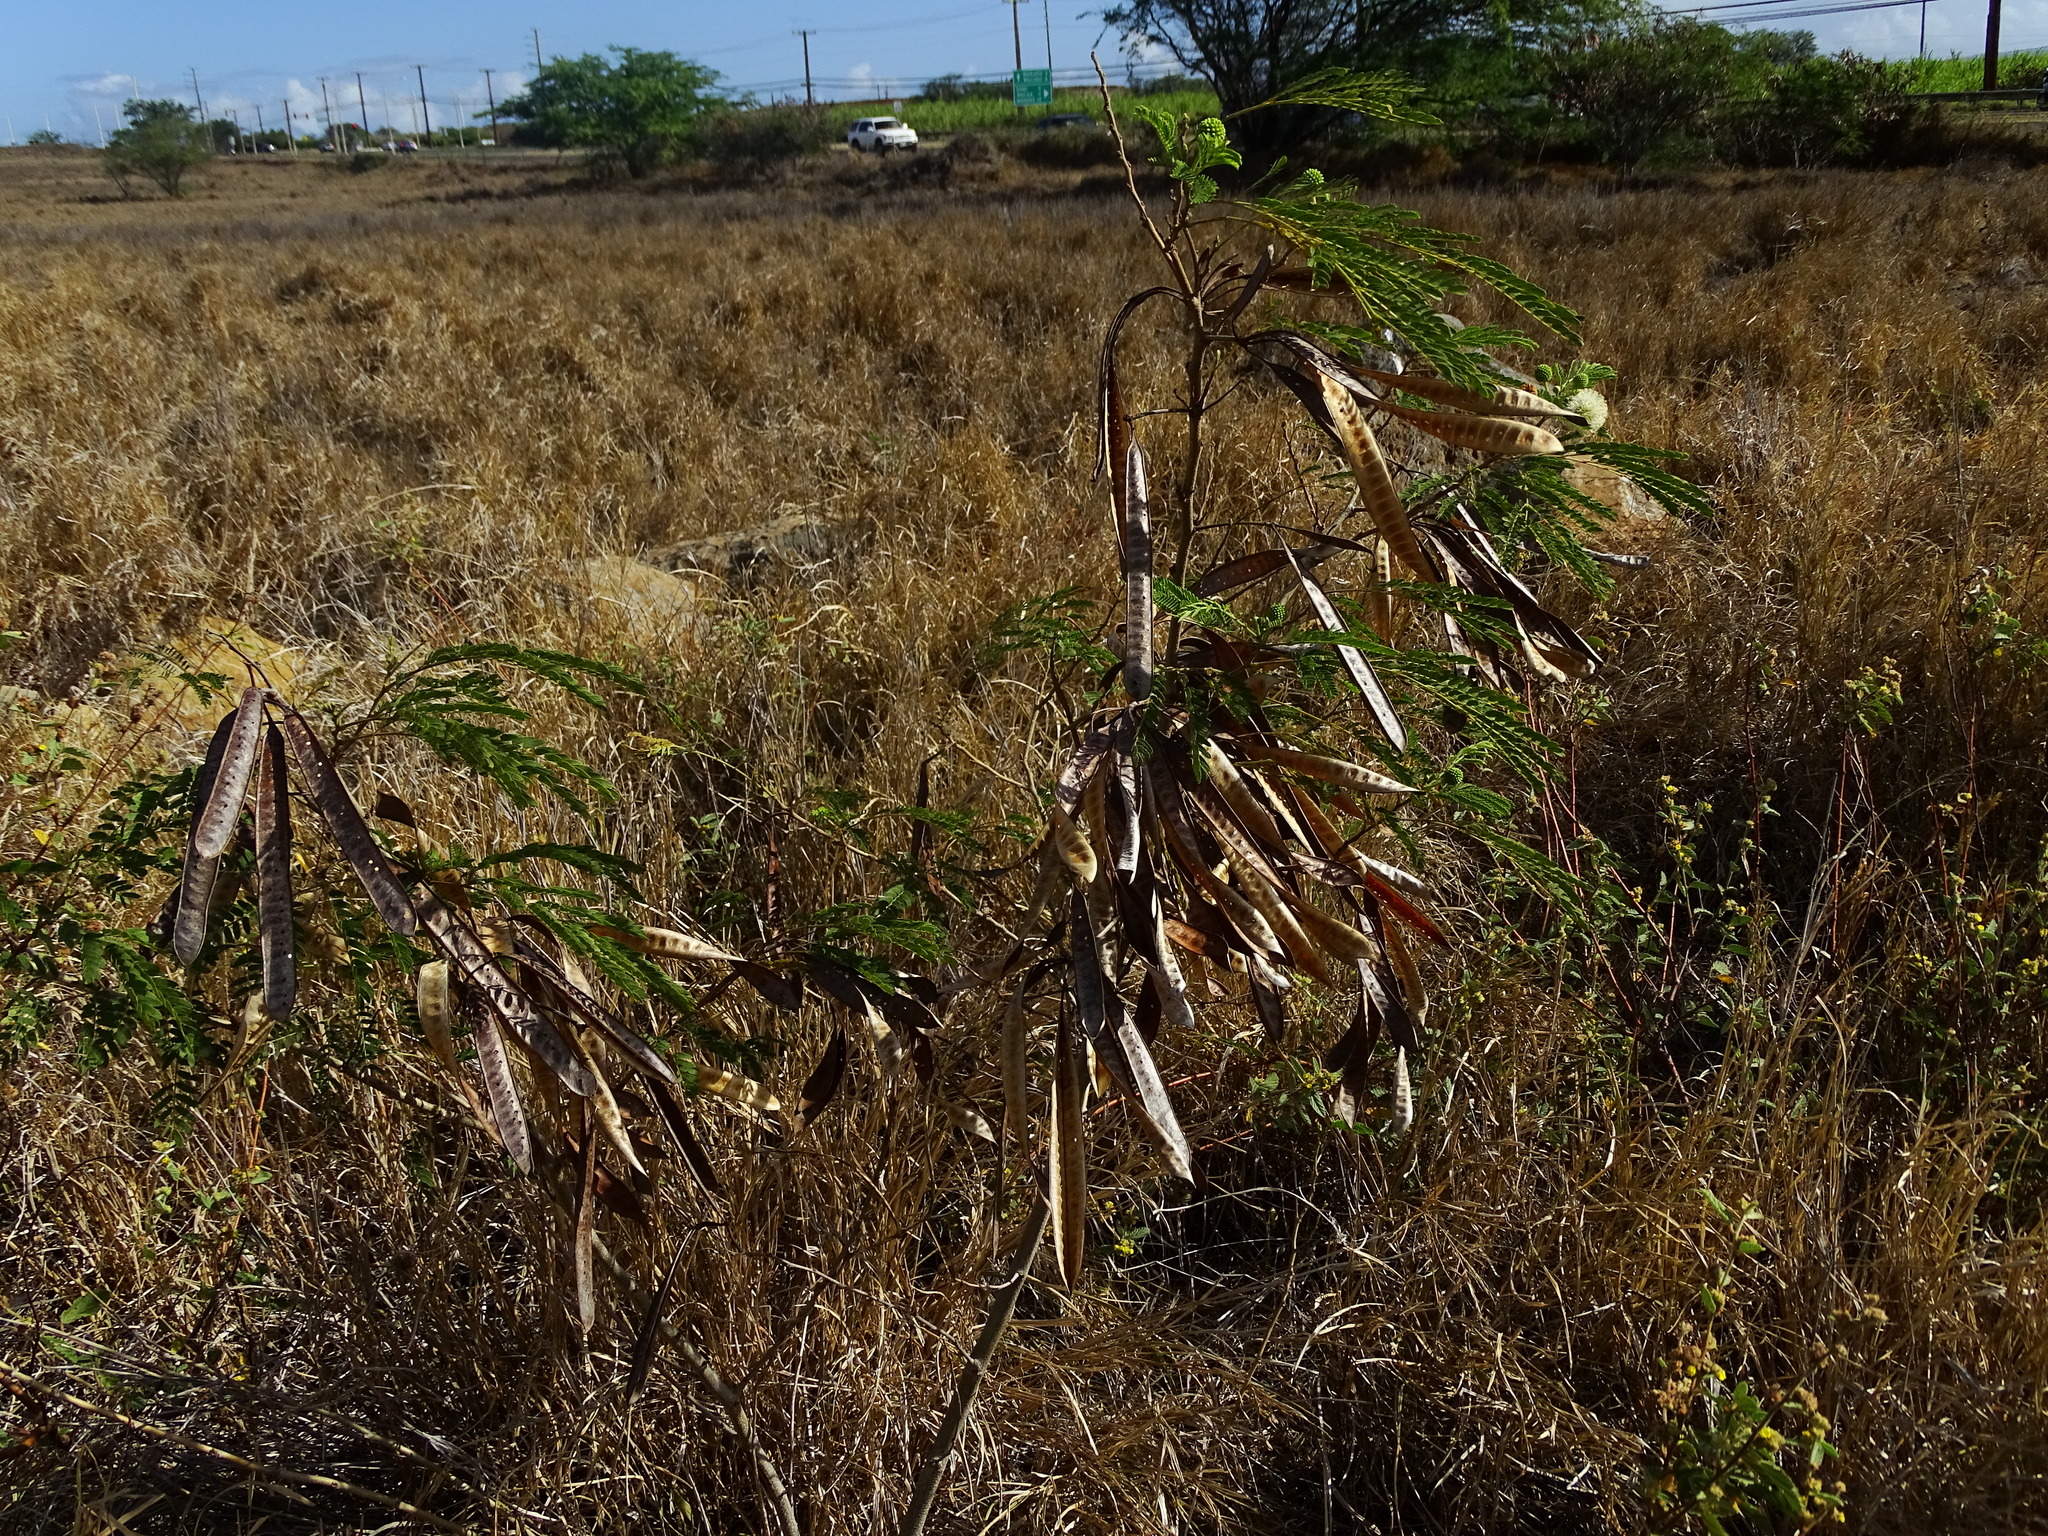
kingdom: Plantae
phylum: Tracheophyta
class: Magnoliopsida
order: Fabales
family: Fabaceae
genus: Leucaena
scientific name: Leucaena leucocephala
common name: White leadtree
